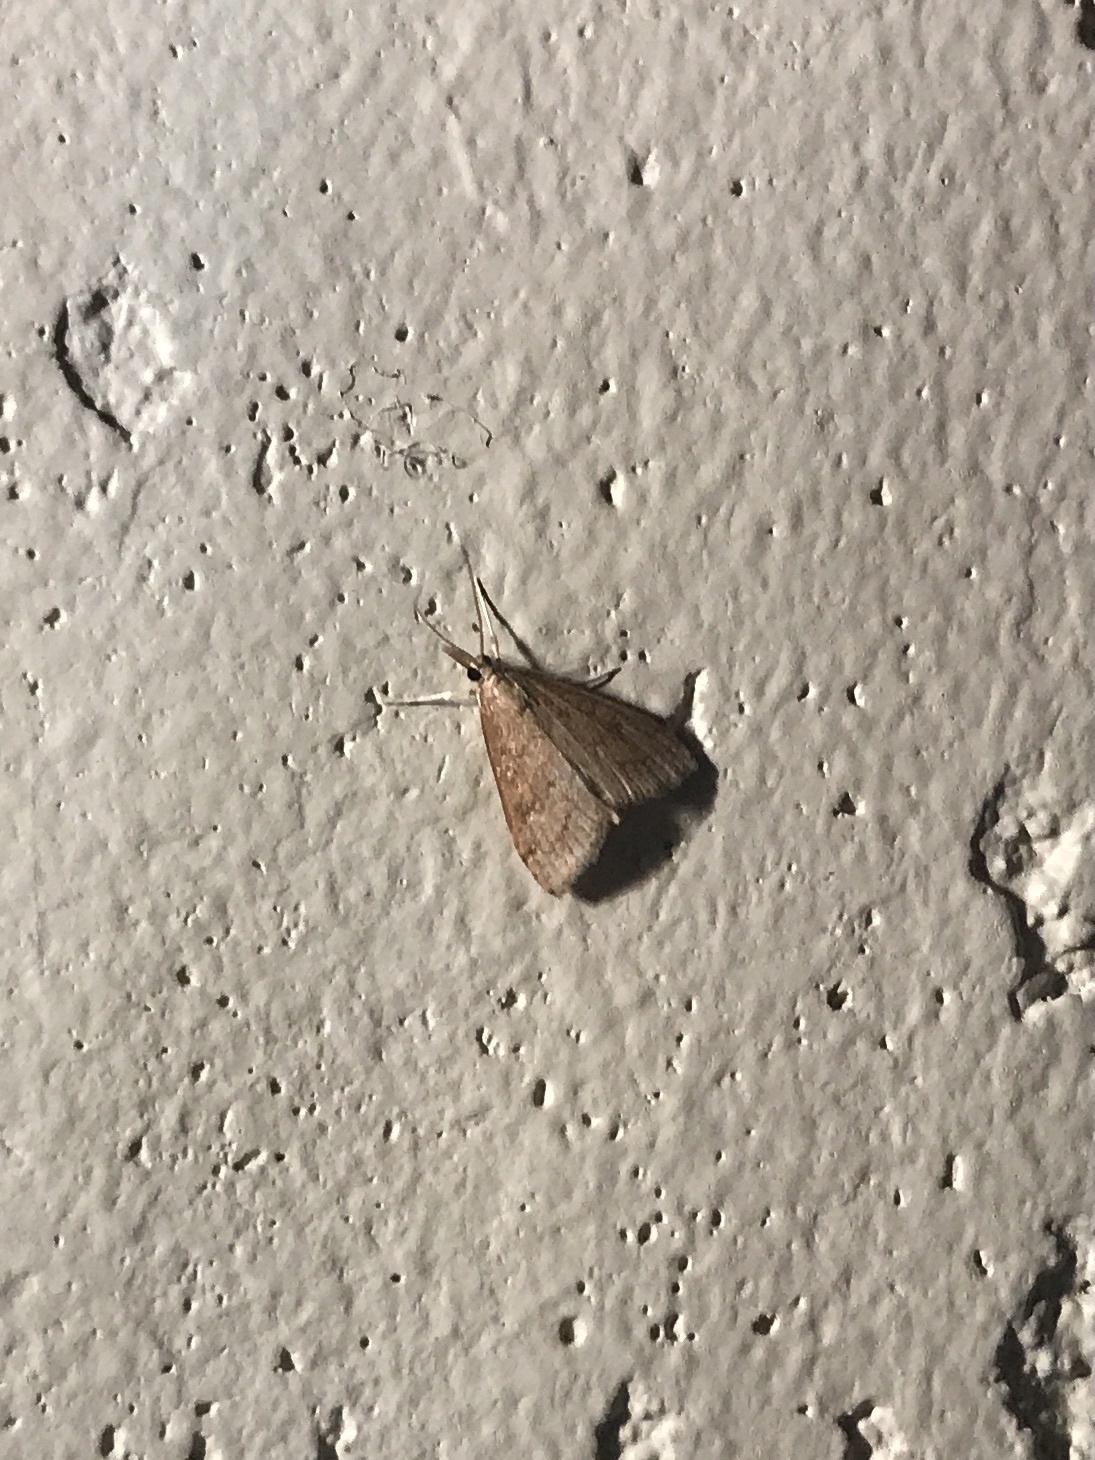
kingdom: Animalia
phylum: Arthropoda
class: Insecta
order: Lepidoptera
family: Crambidae
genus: Udea
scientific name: Udea rubigalis
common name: Celery leaftier moth
